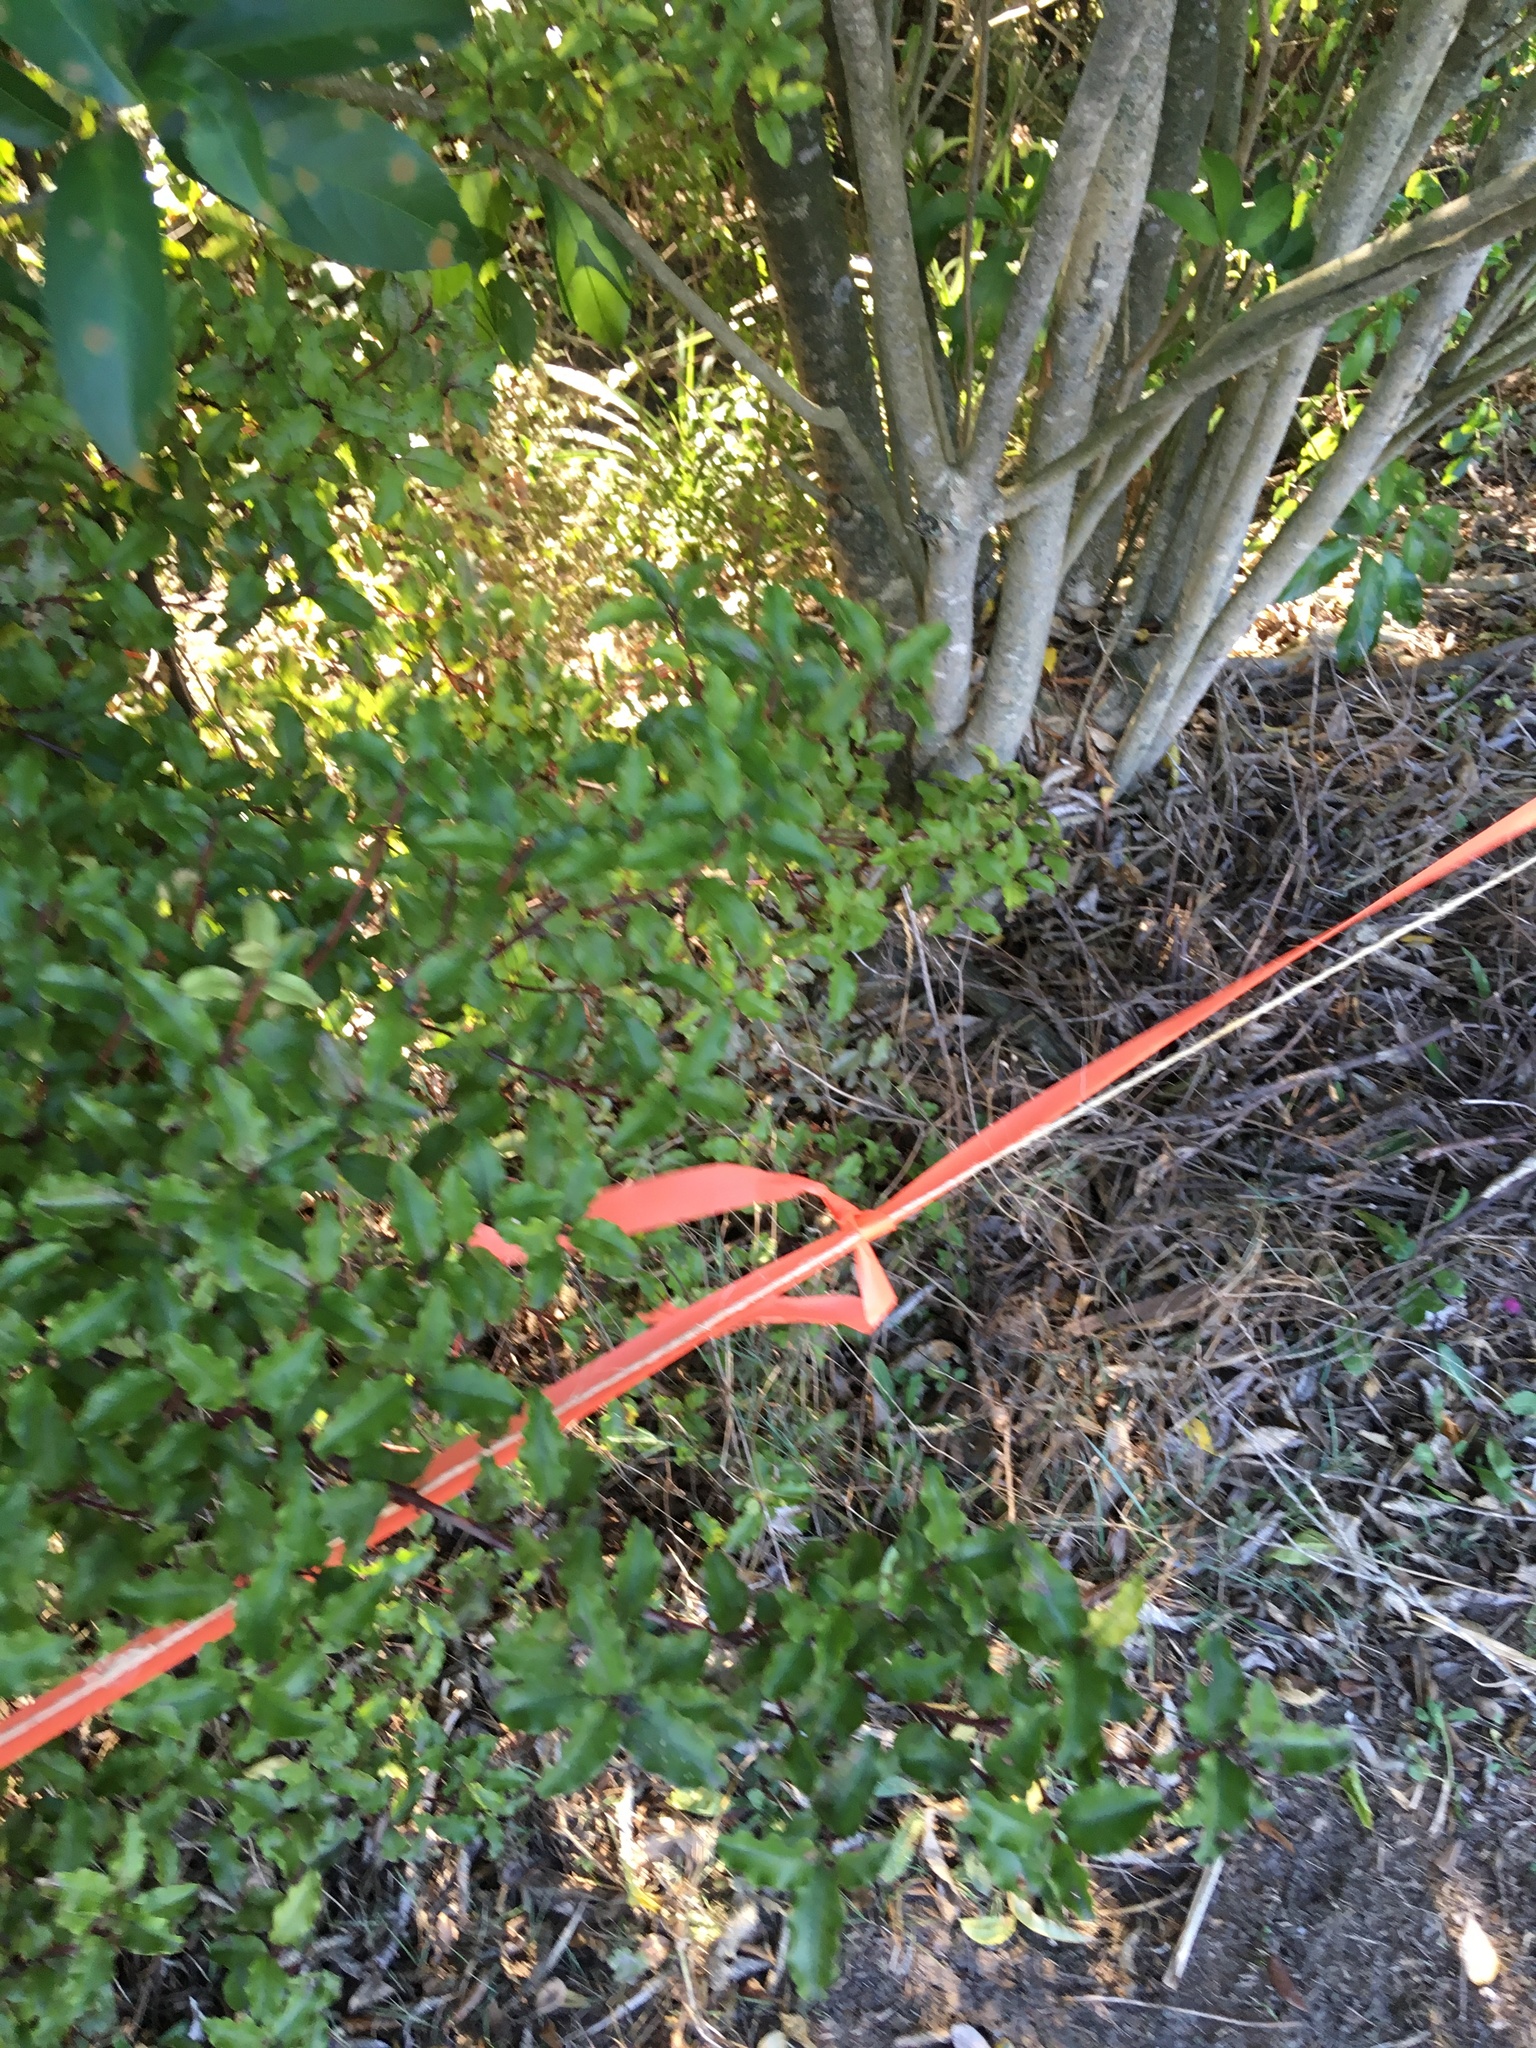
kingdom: Plantae
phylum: Tracheophyta
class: Magnoliopsida
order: Ericales
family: Primulaceae
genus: Myrsine
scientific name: Myrsine australis
